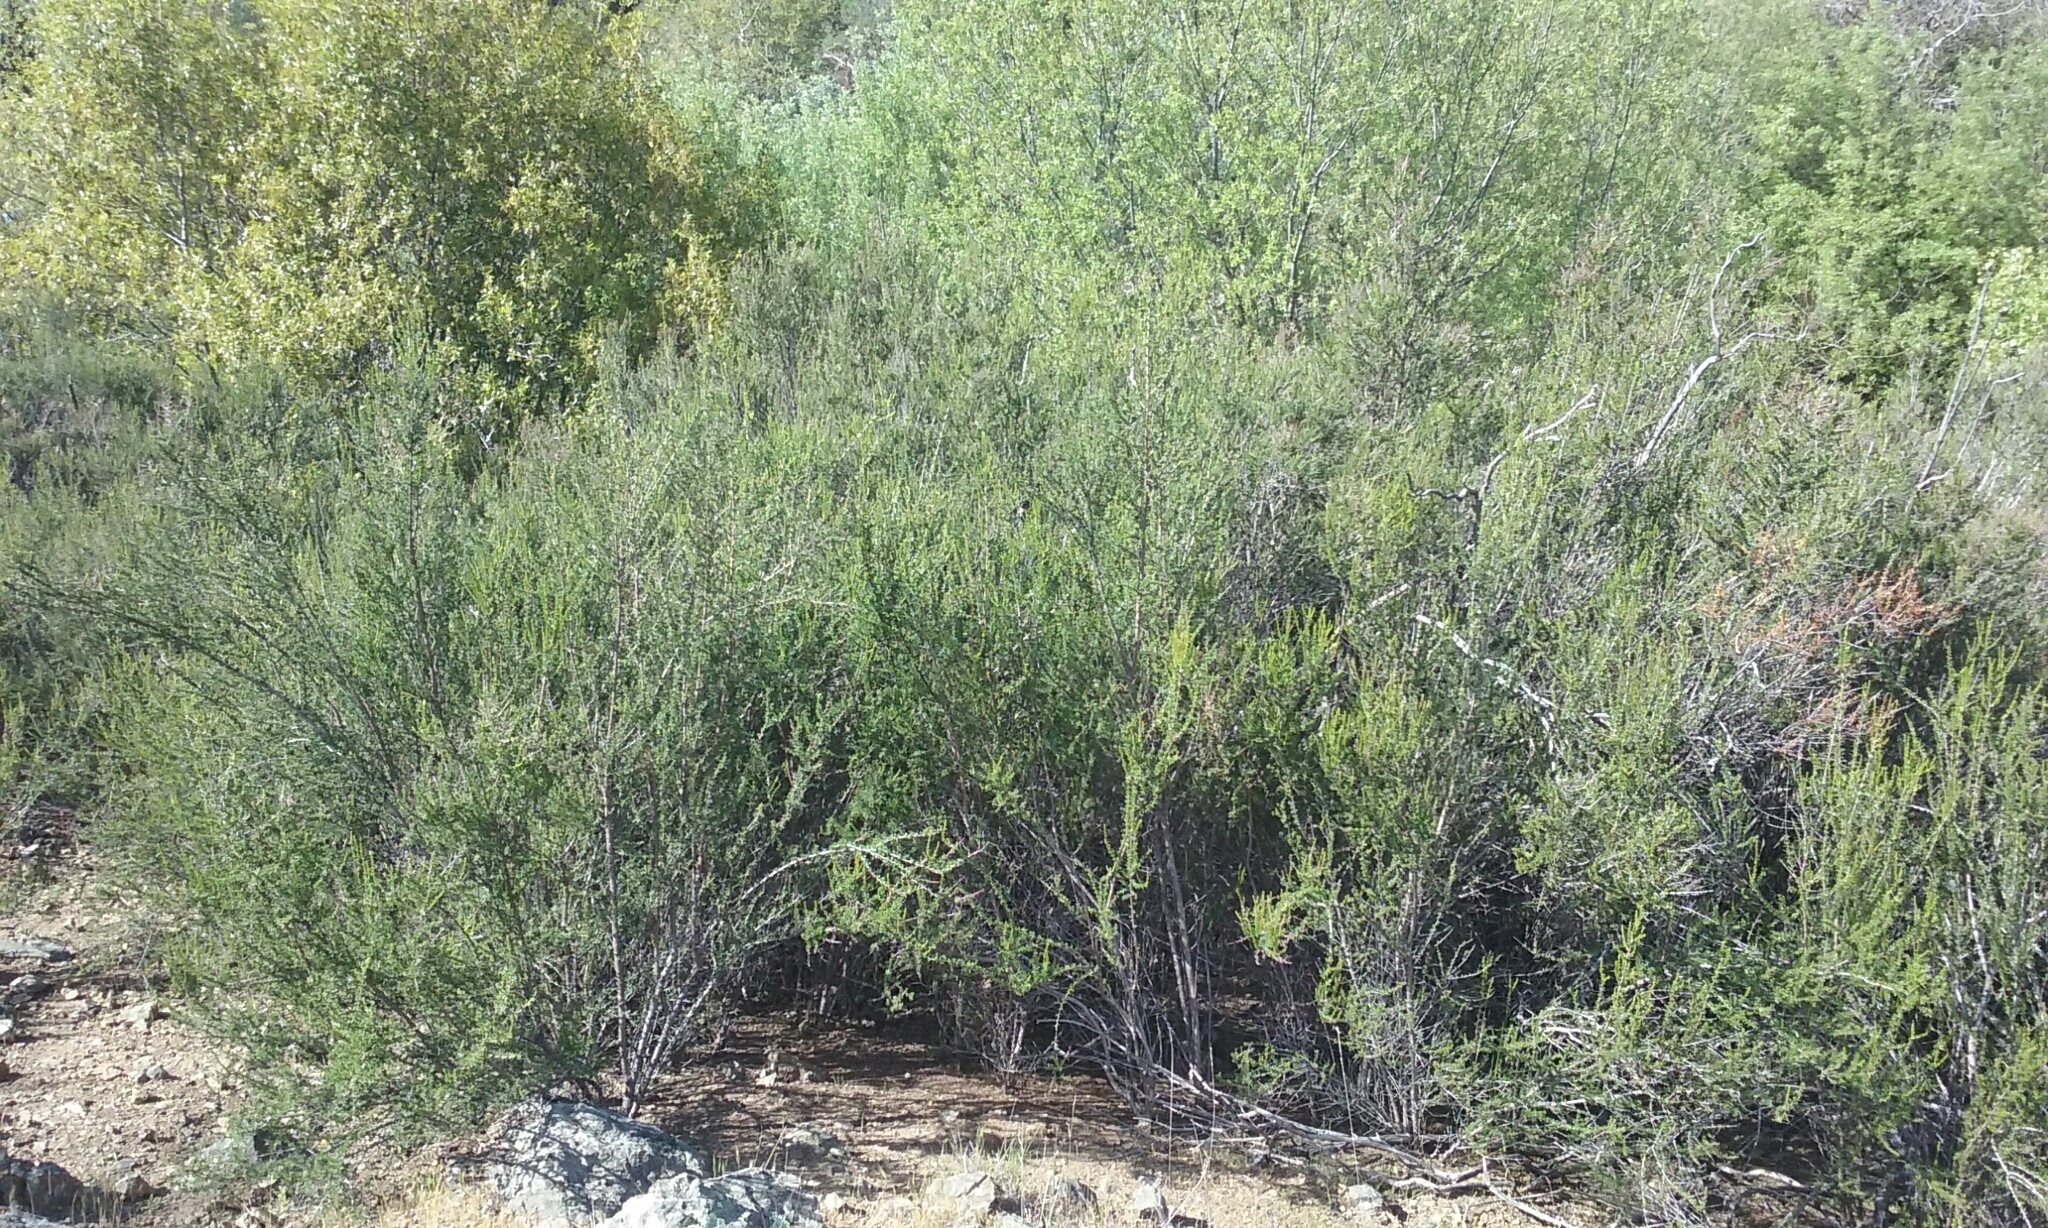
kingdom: Plantae
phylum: Tracheophyta
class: Magnoliopsida
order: Rosales
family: Rosaceae
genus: Adenostoma
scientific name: Adenostoma fasciculatum
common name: Chamise
